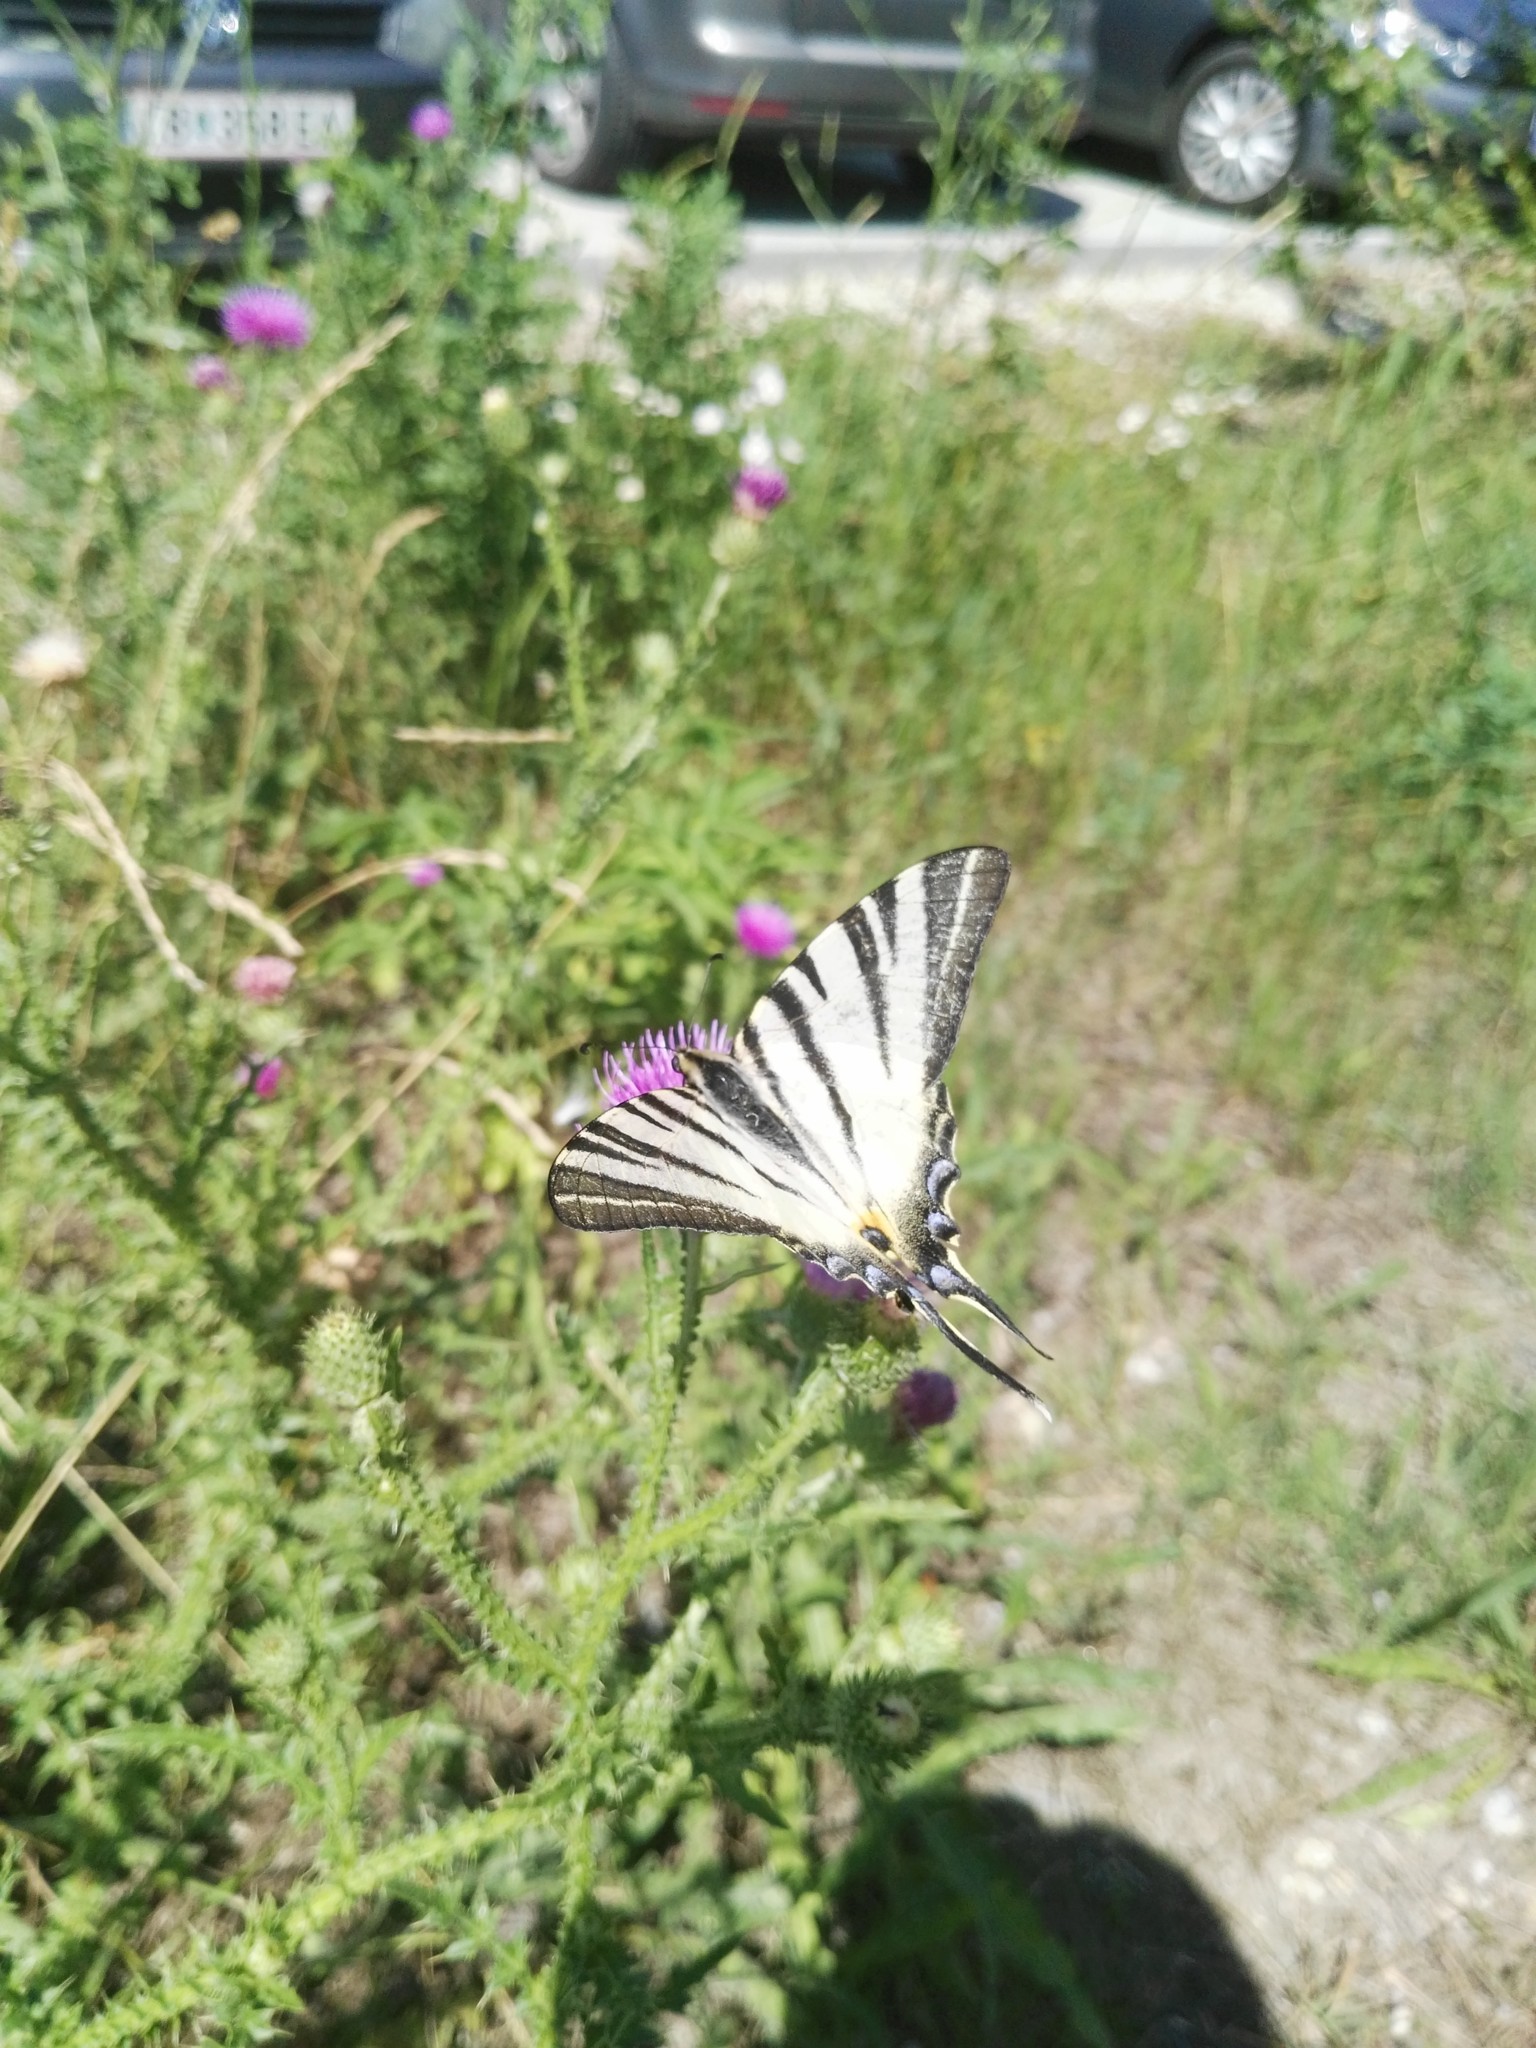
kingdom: Animalia
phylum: Arthropoda
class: Insecta
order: Lepidoptera
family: Papilionidae
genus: Iphiclides
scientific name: Iphiclides podalirius
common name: Scarce swallowtail
